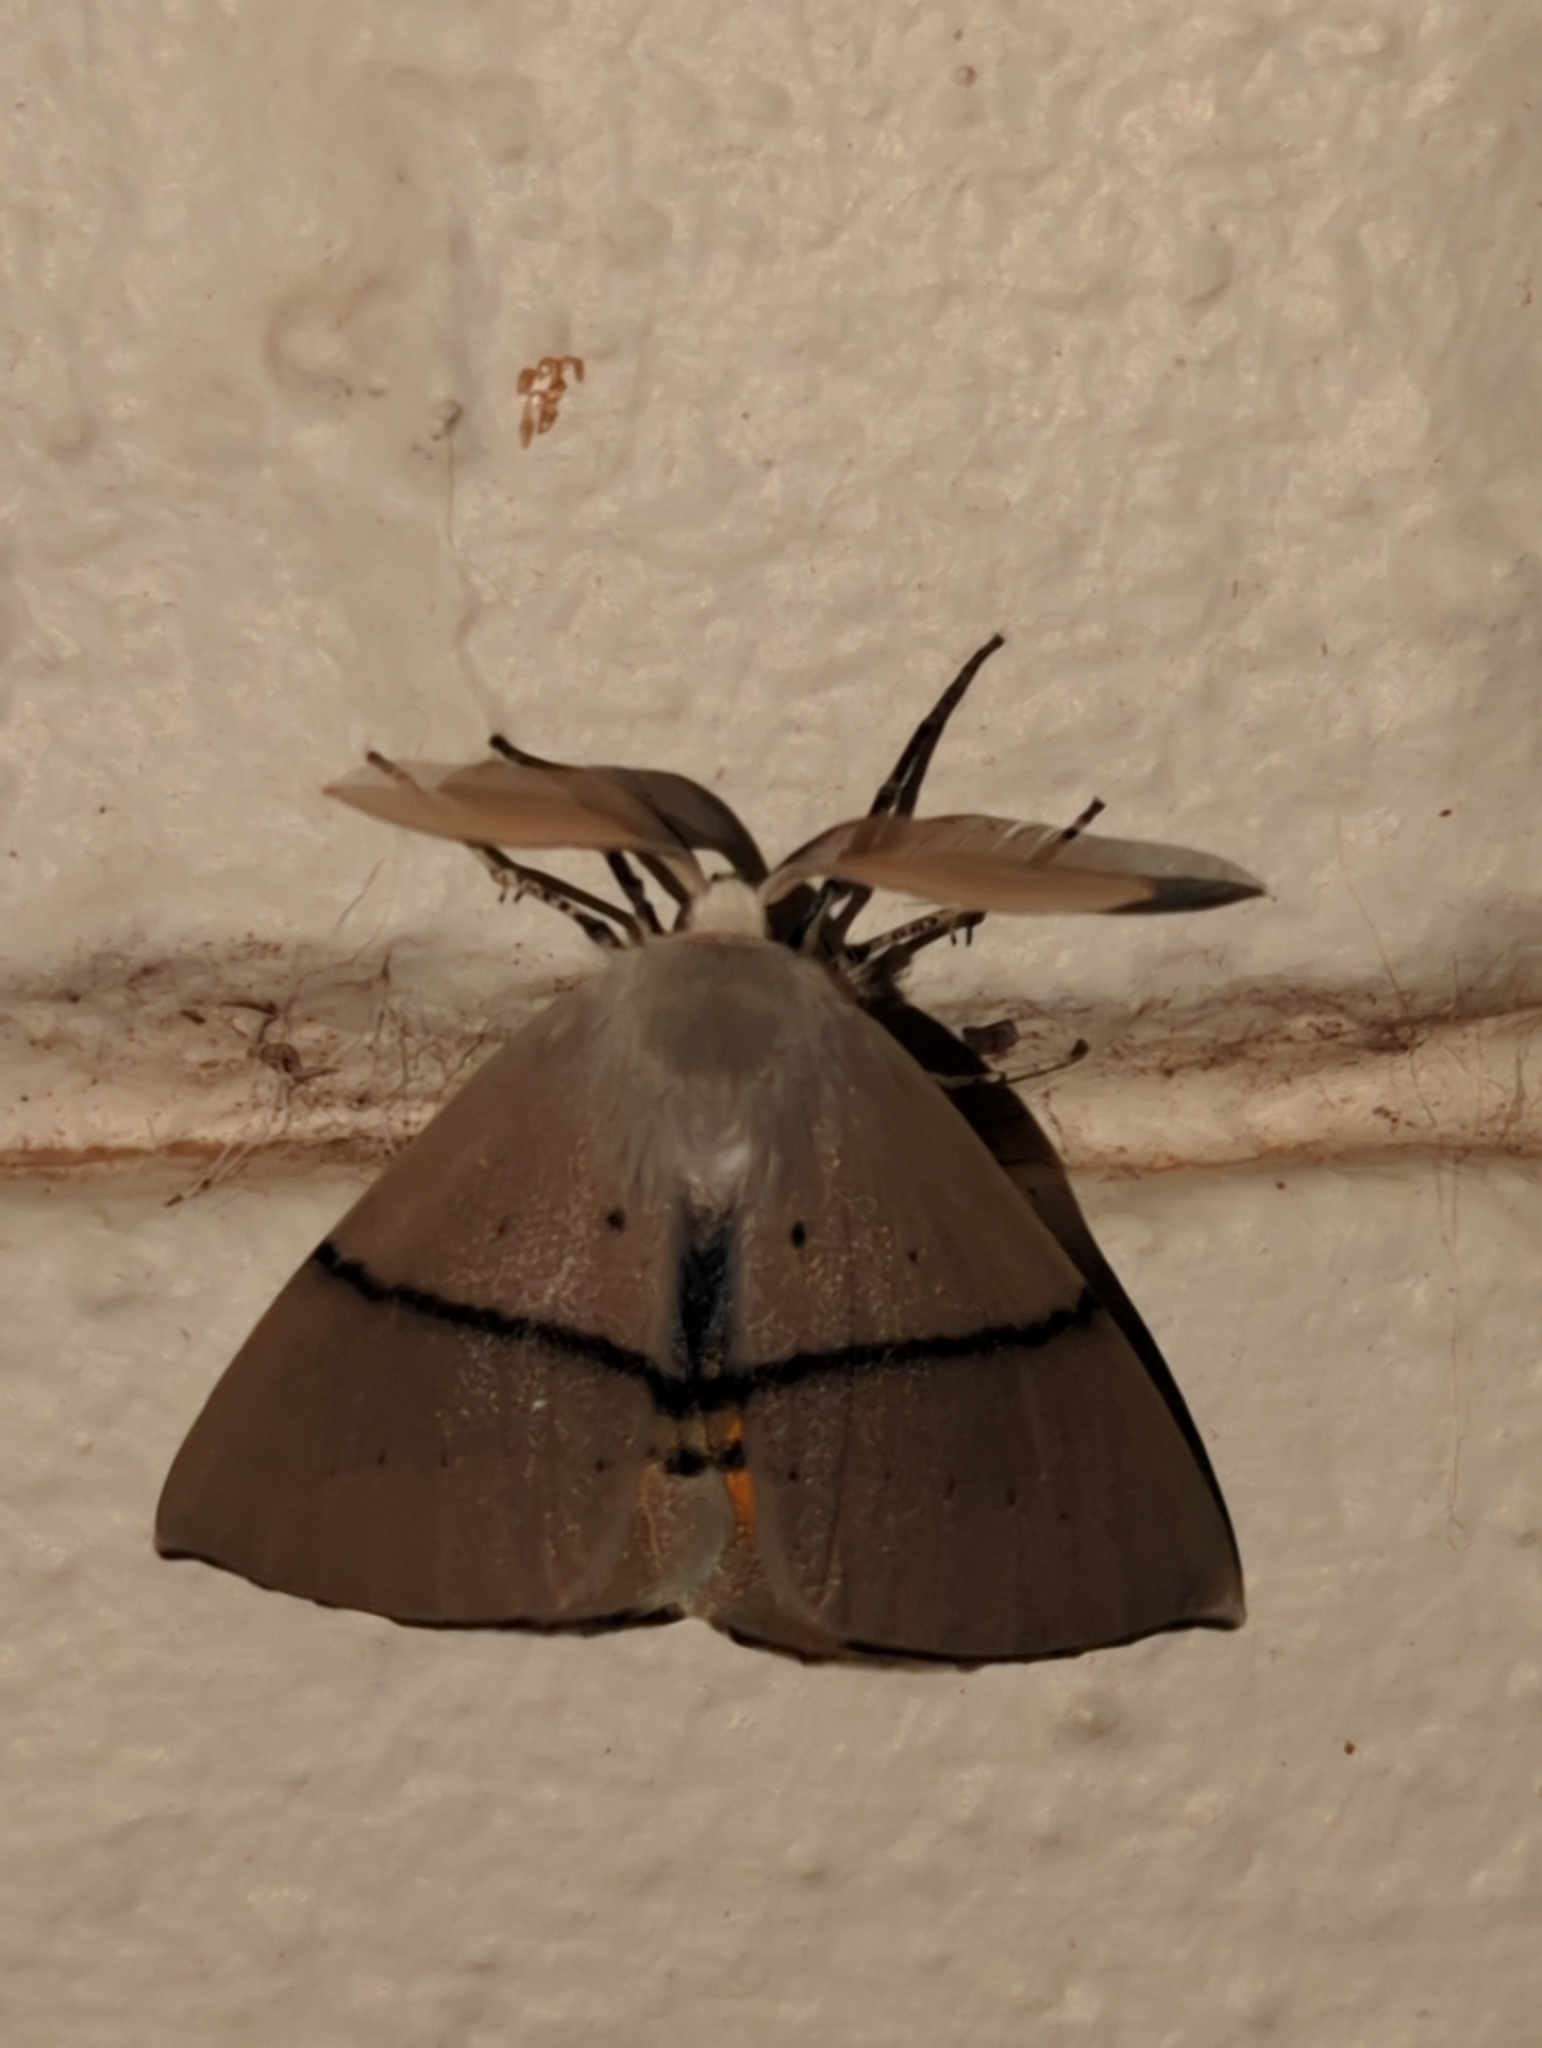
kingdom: Animalia
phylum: Arthropoda
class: Insecta
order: Lepidoptera
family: Geometridae
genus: Gastrophora
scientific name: Gastrophora henricaria
